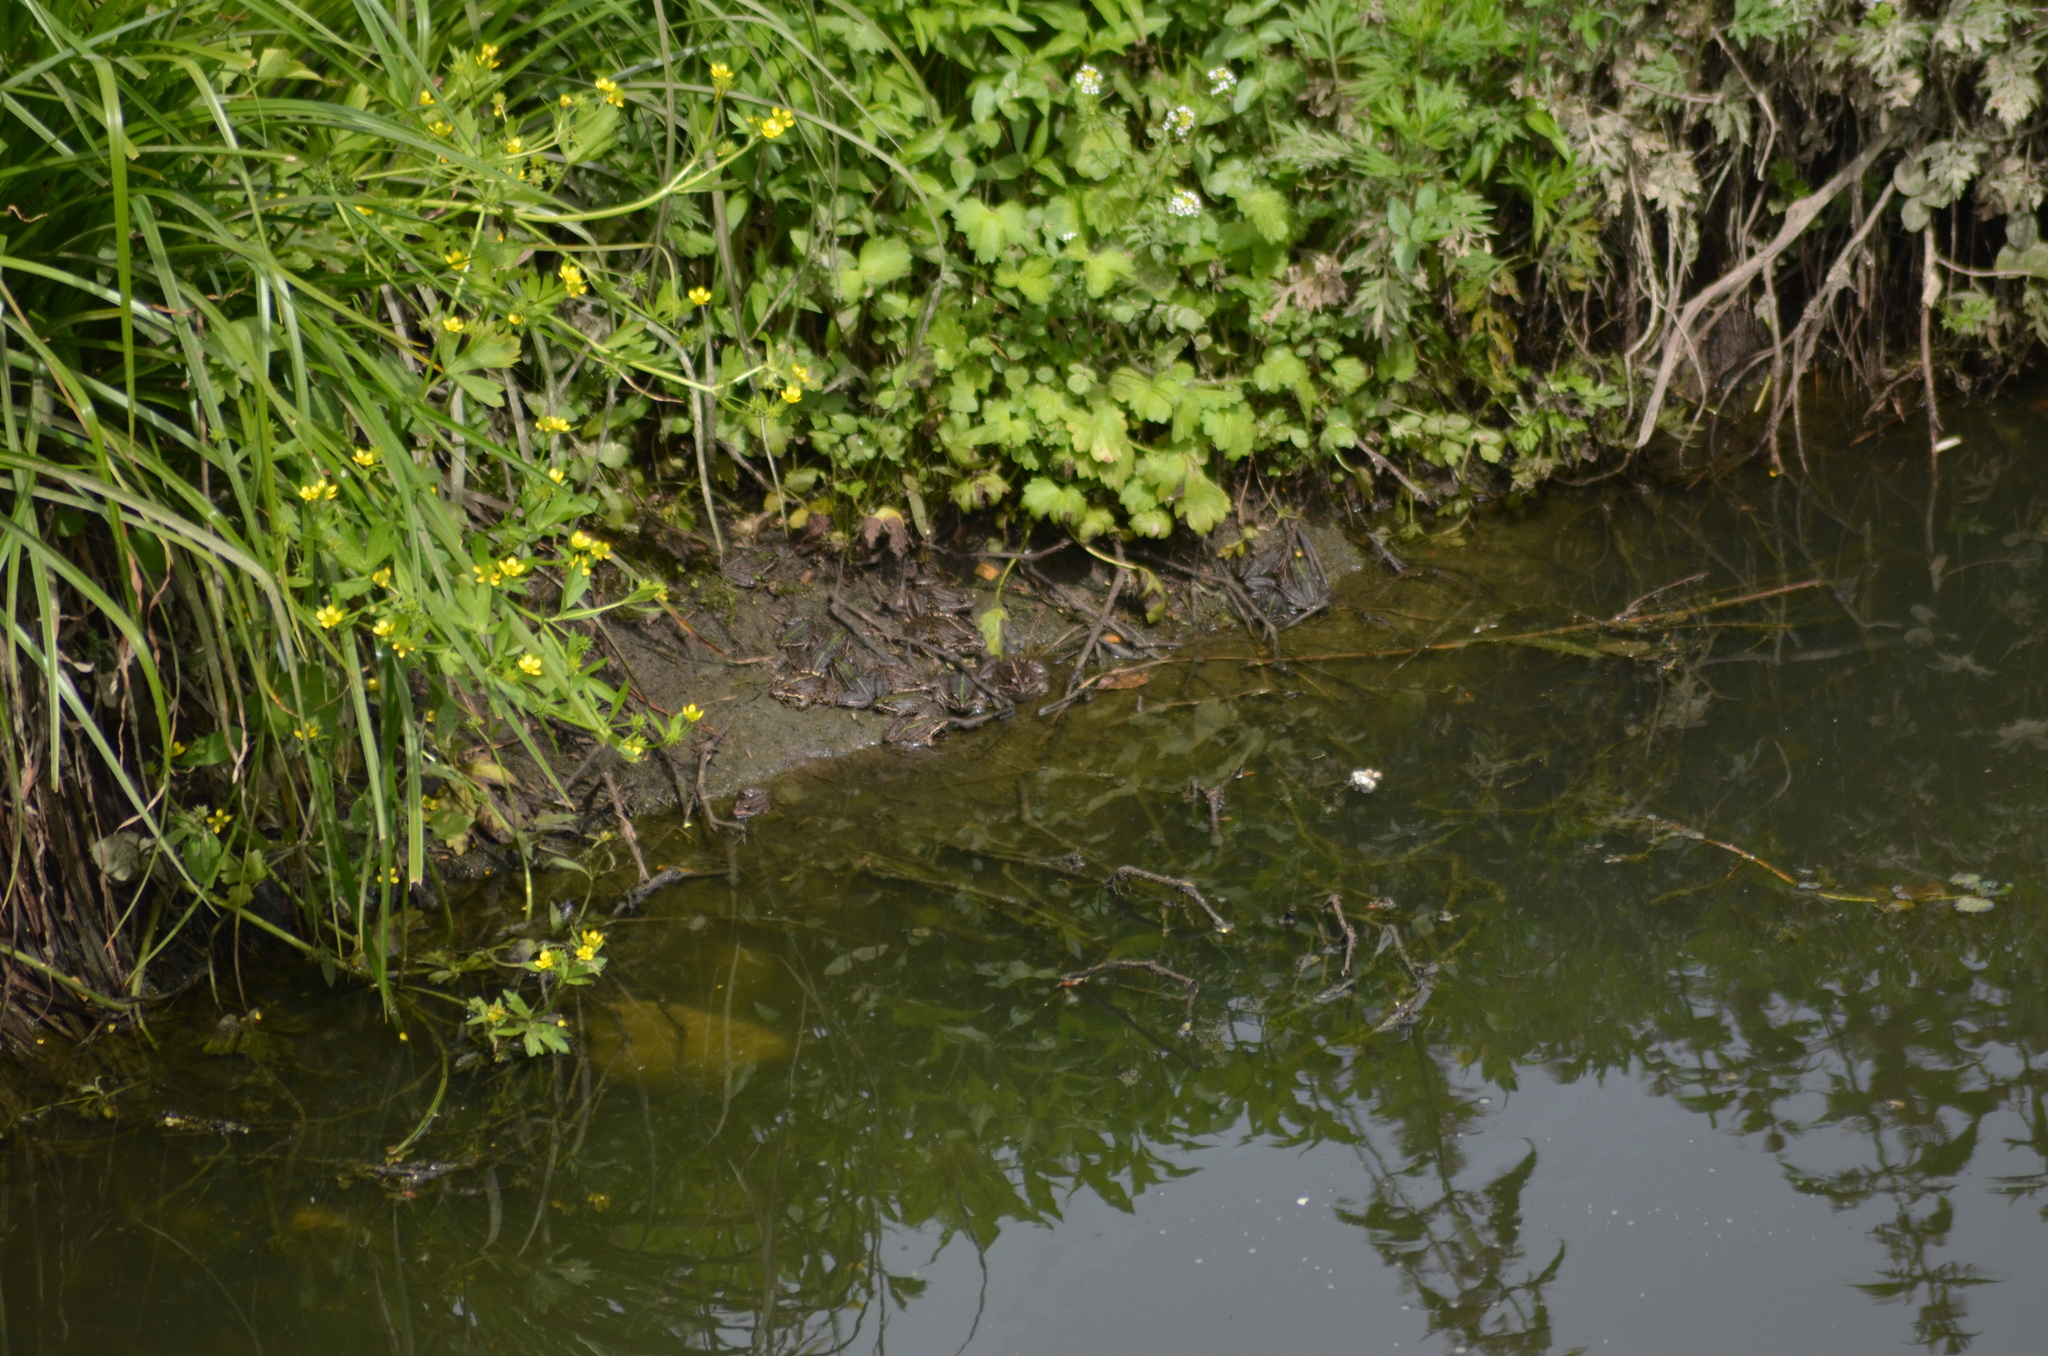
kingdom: Animalia
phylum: Chordata
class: Amphibia
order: Anura
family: Ranidae
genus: Pelophylax
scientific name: Pelophylax perezi
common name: Perez's frog
